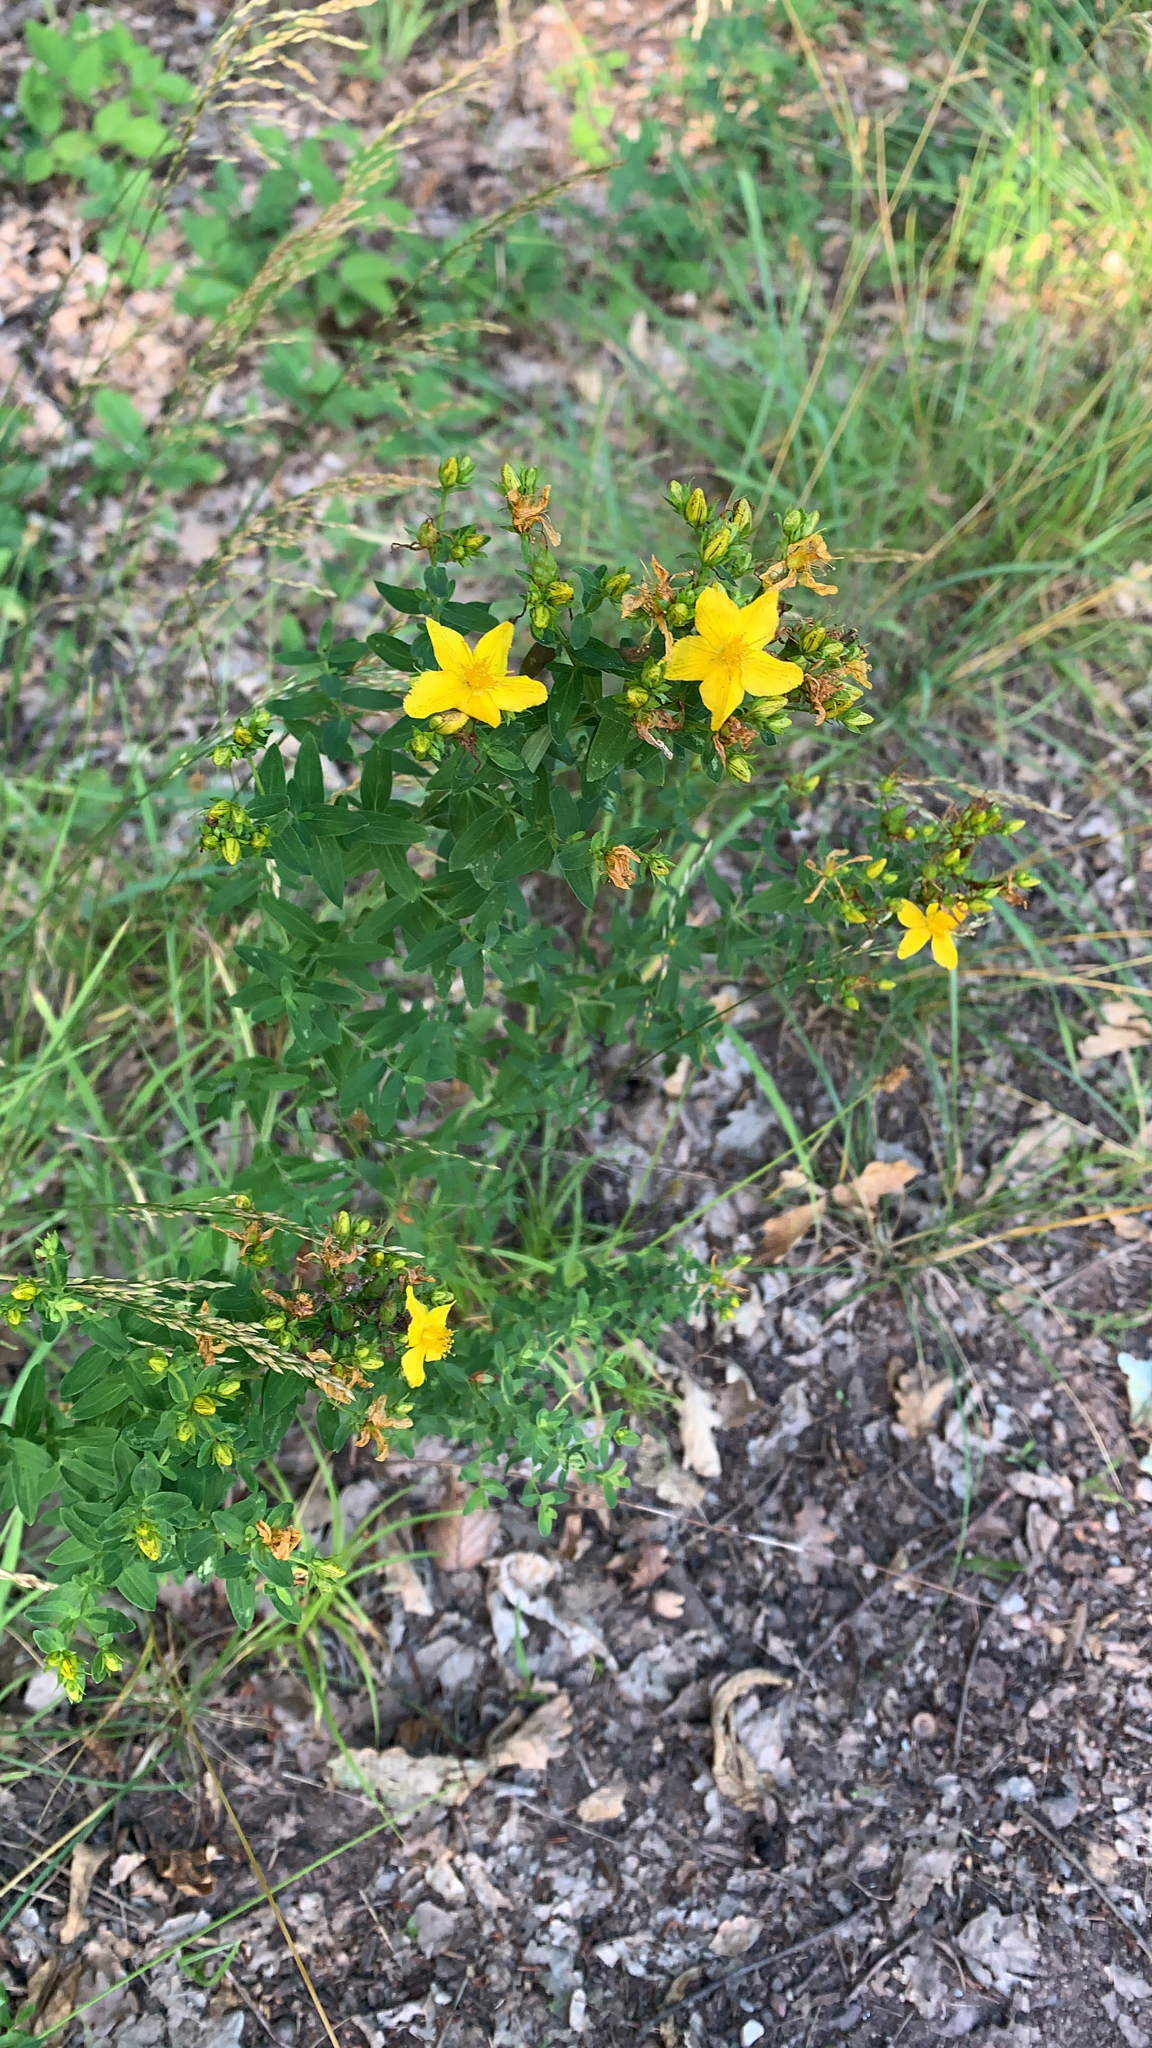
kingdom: Plantae
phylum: Tracheophyta
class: Magnoliopsida
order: Malpighiales
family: Hypericaceae
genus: Hypericum
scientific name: Hypericum perforatum
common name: Common st. johnswort
